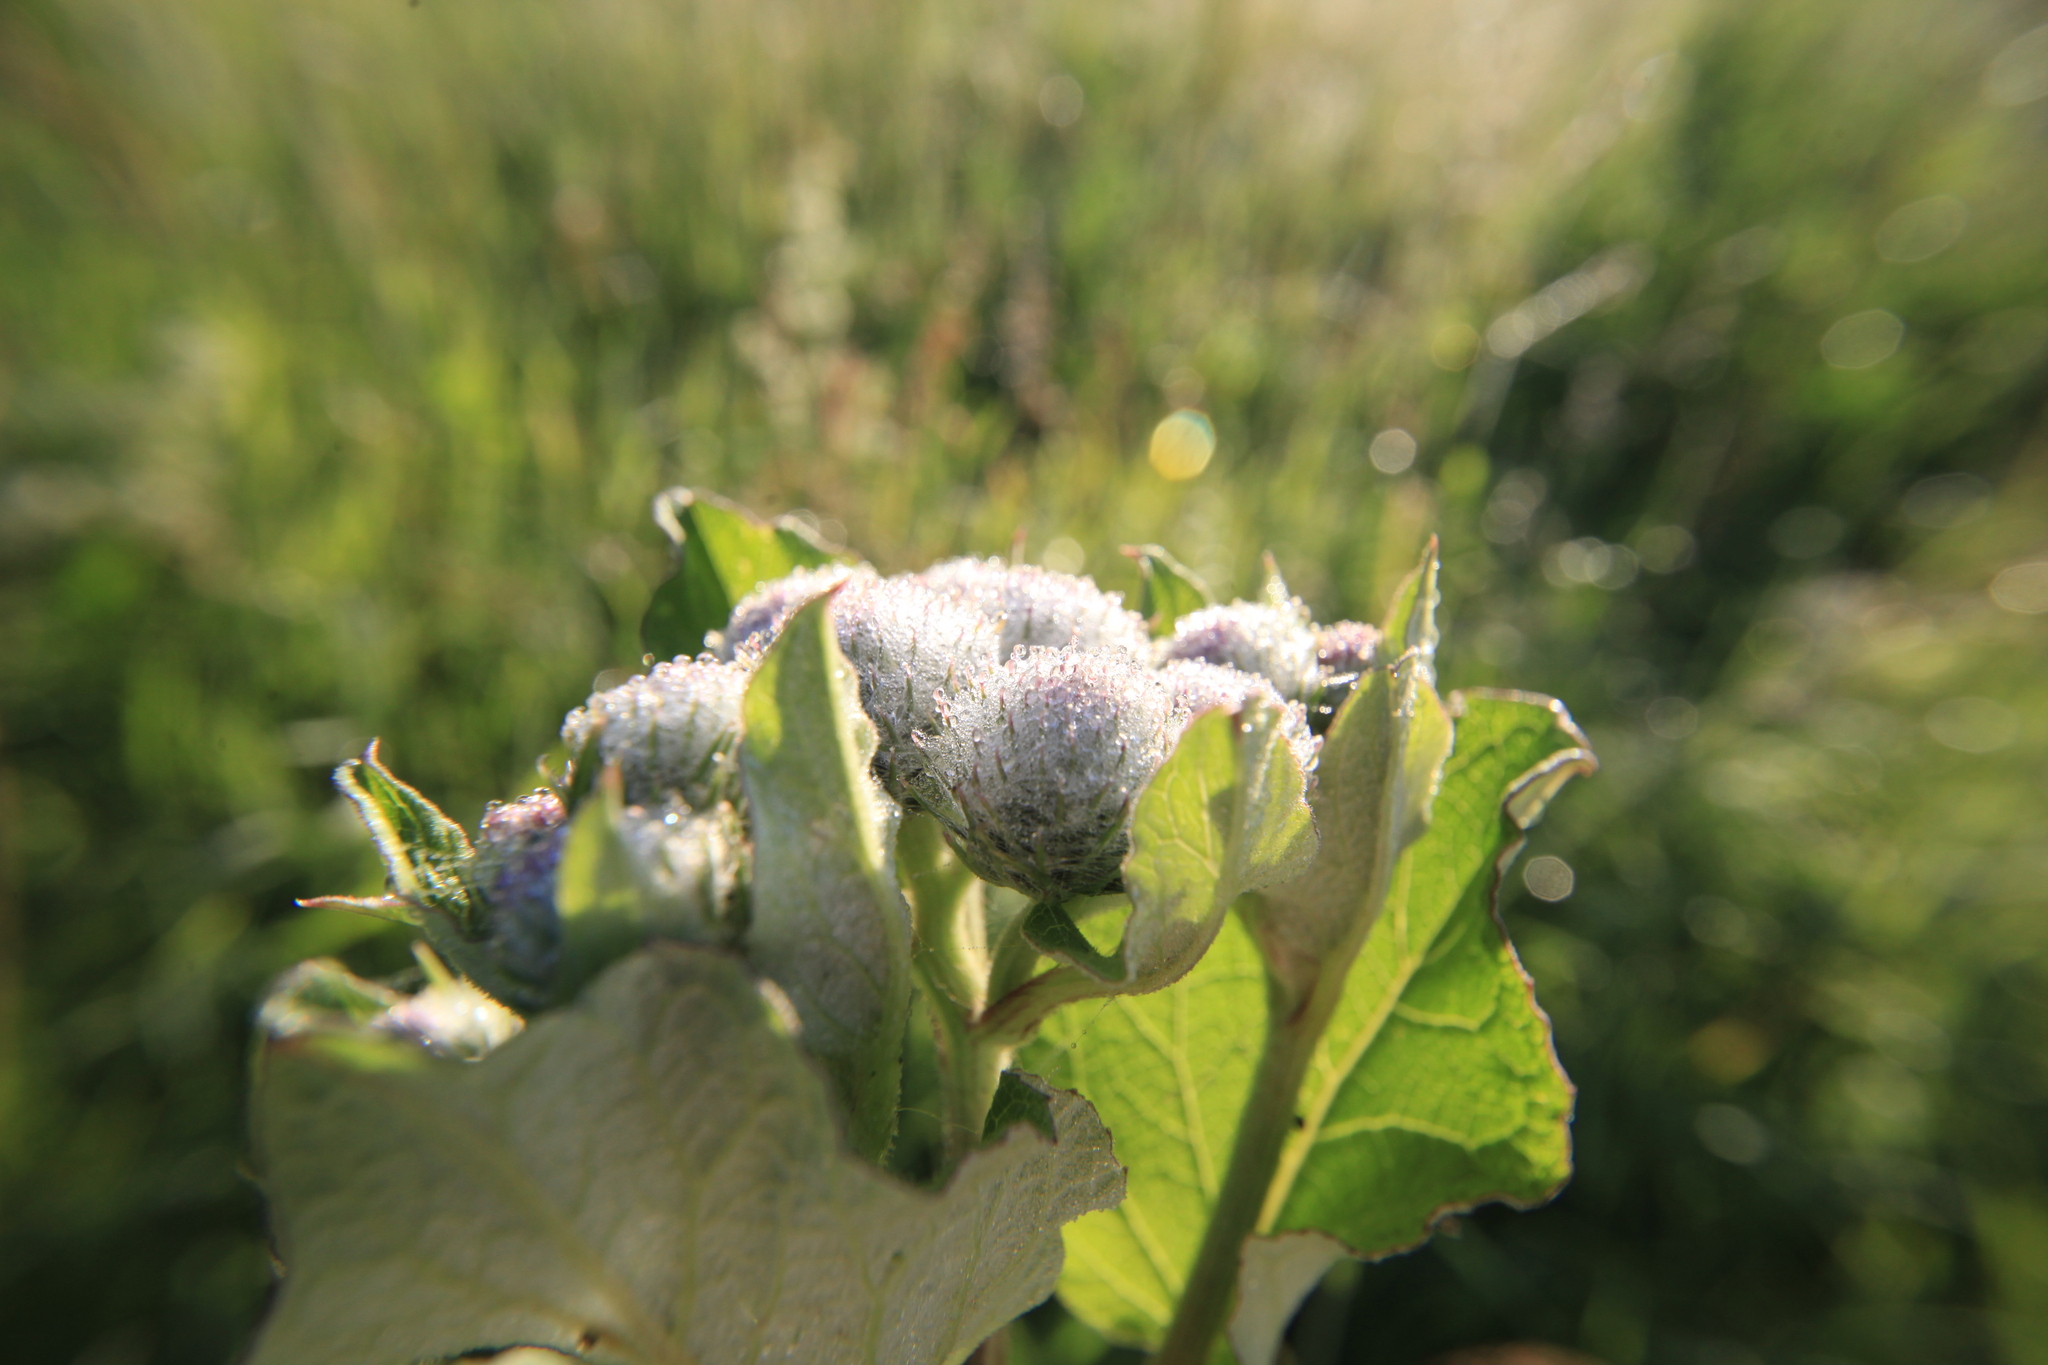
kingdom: Plantae
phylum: Tracheophyta
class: Magnoliopsida
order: Asterales
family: Asteraceae
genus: Arctium
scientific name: Arctium tomentosum
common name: Woolly burdock
